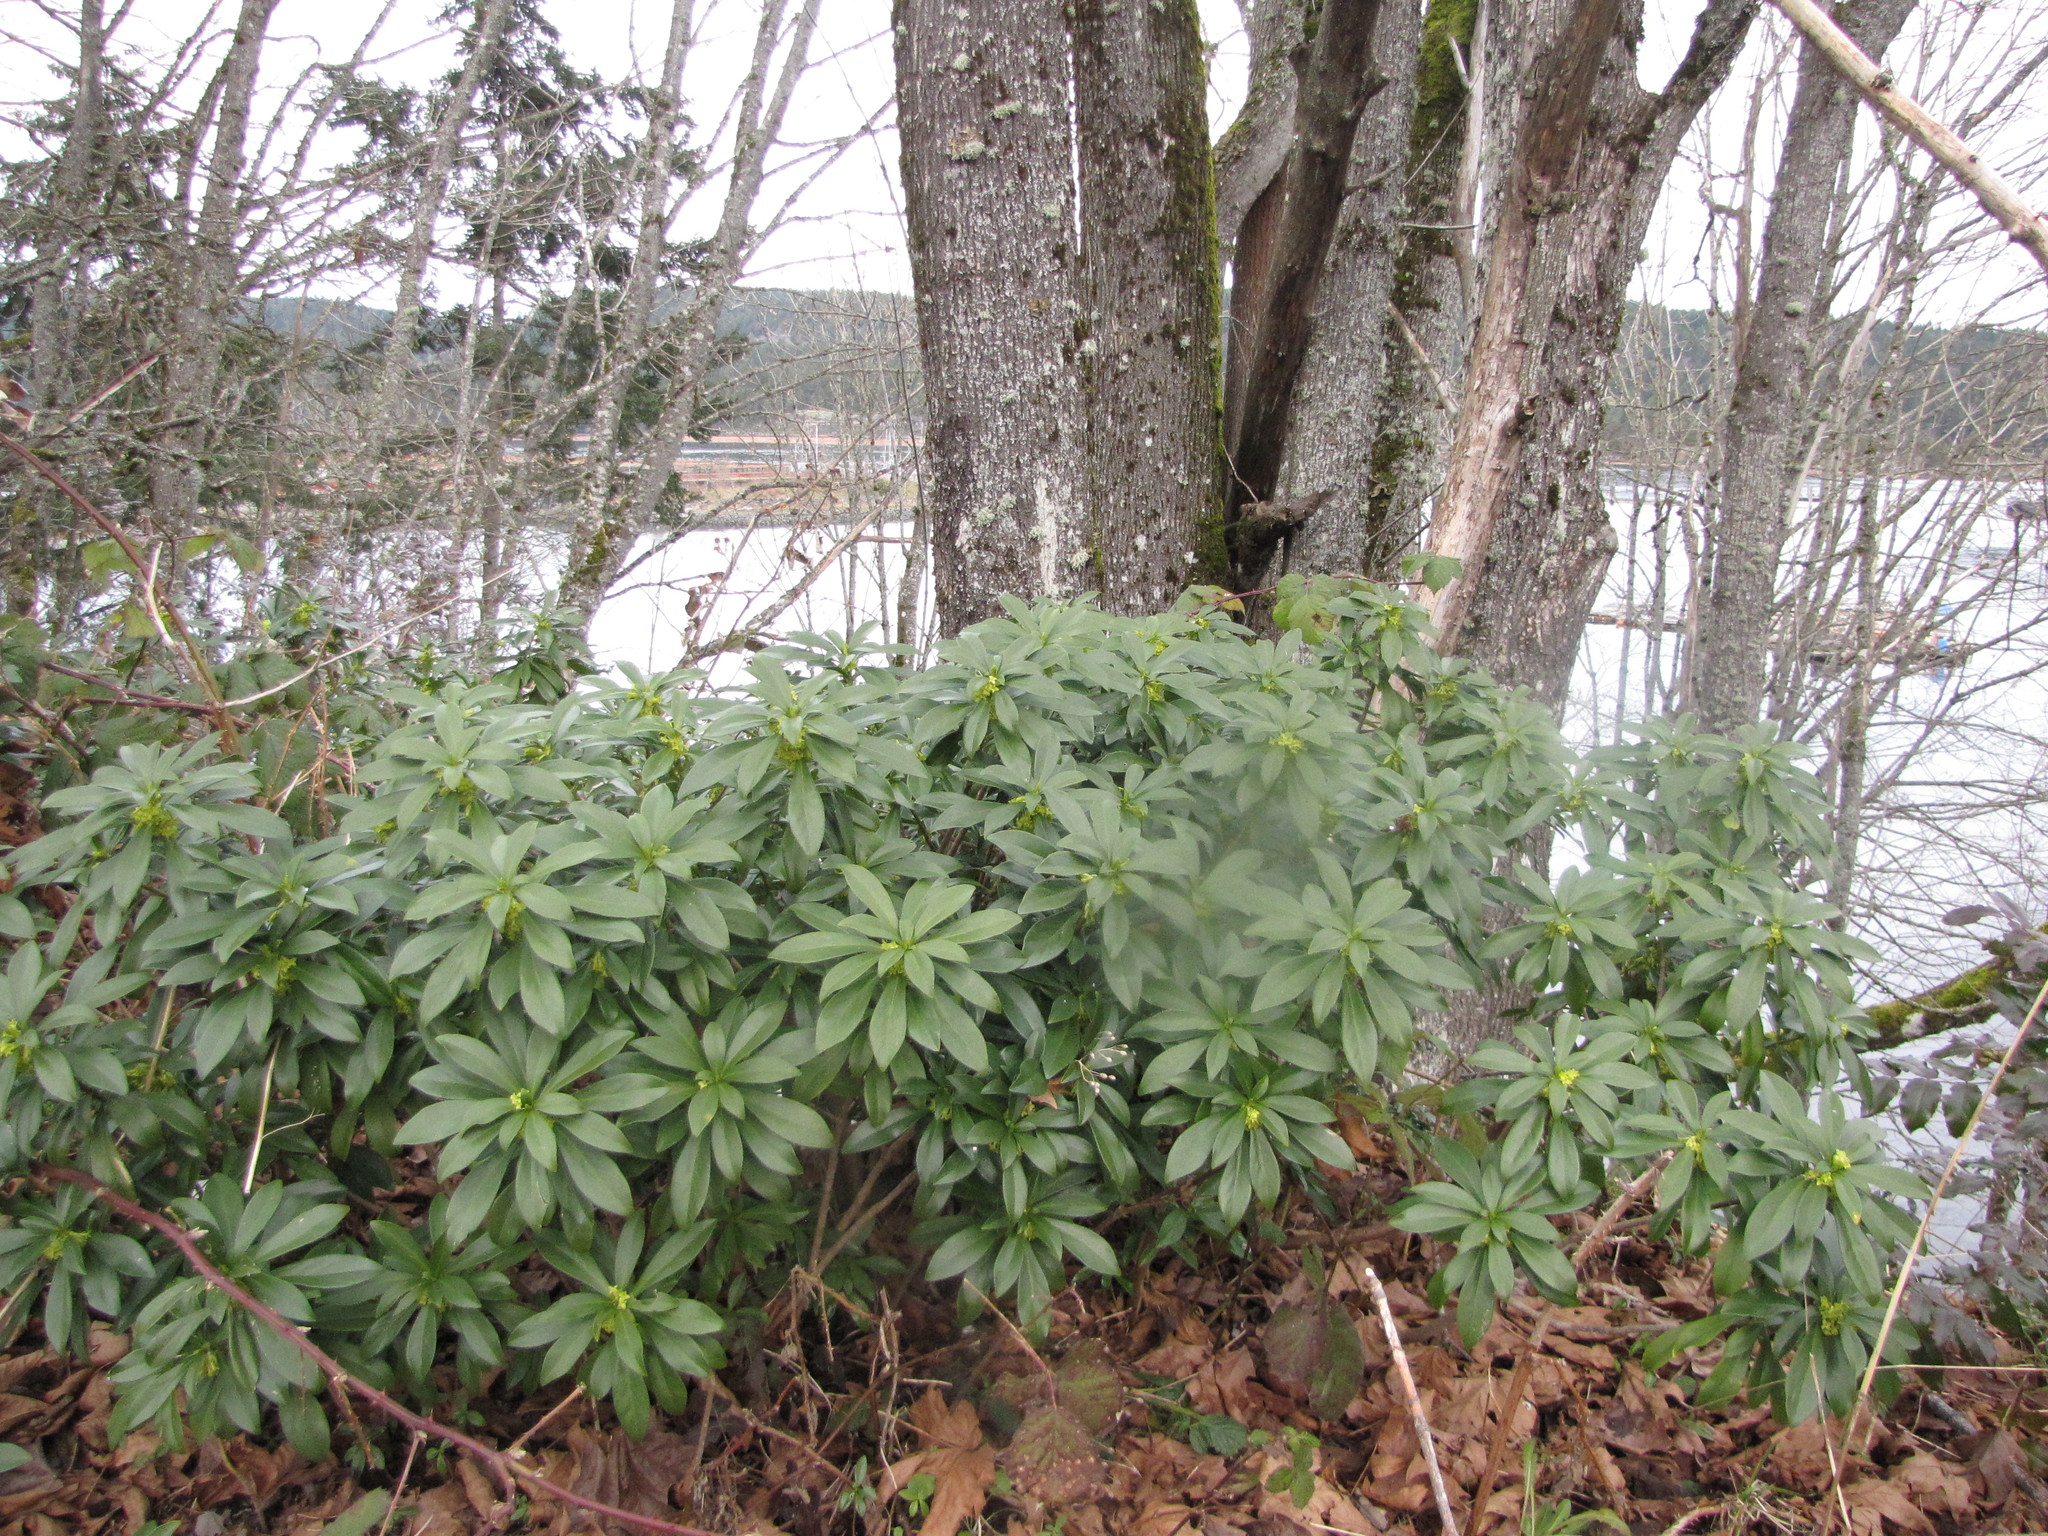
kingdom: Plantae
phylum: Tracheophyta
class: Magnoliopsida
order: Malvales
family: Thymelaeaceae
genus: Daphne
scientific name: Daphne laureola
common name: Spurge-laurel
